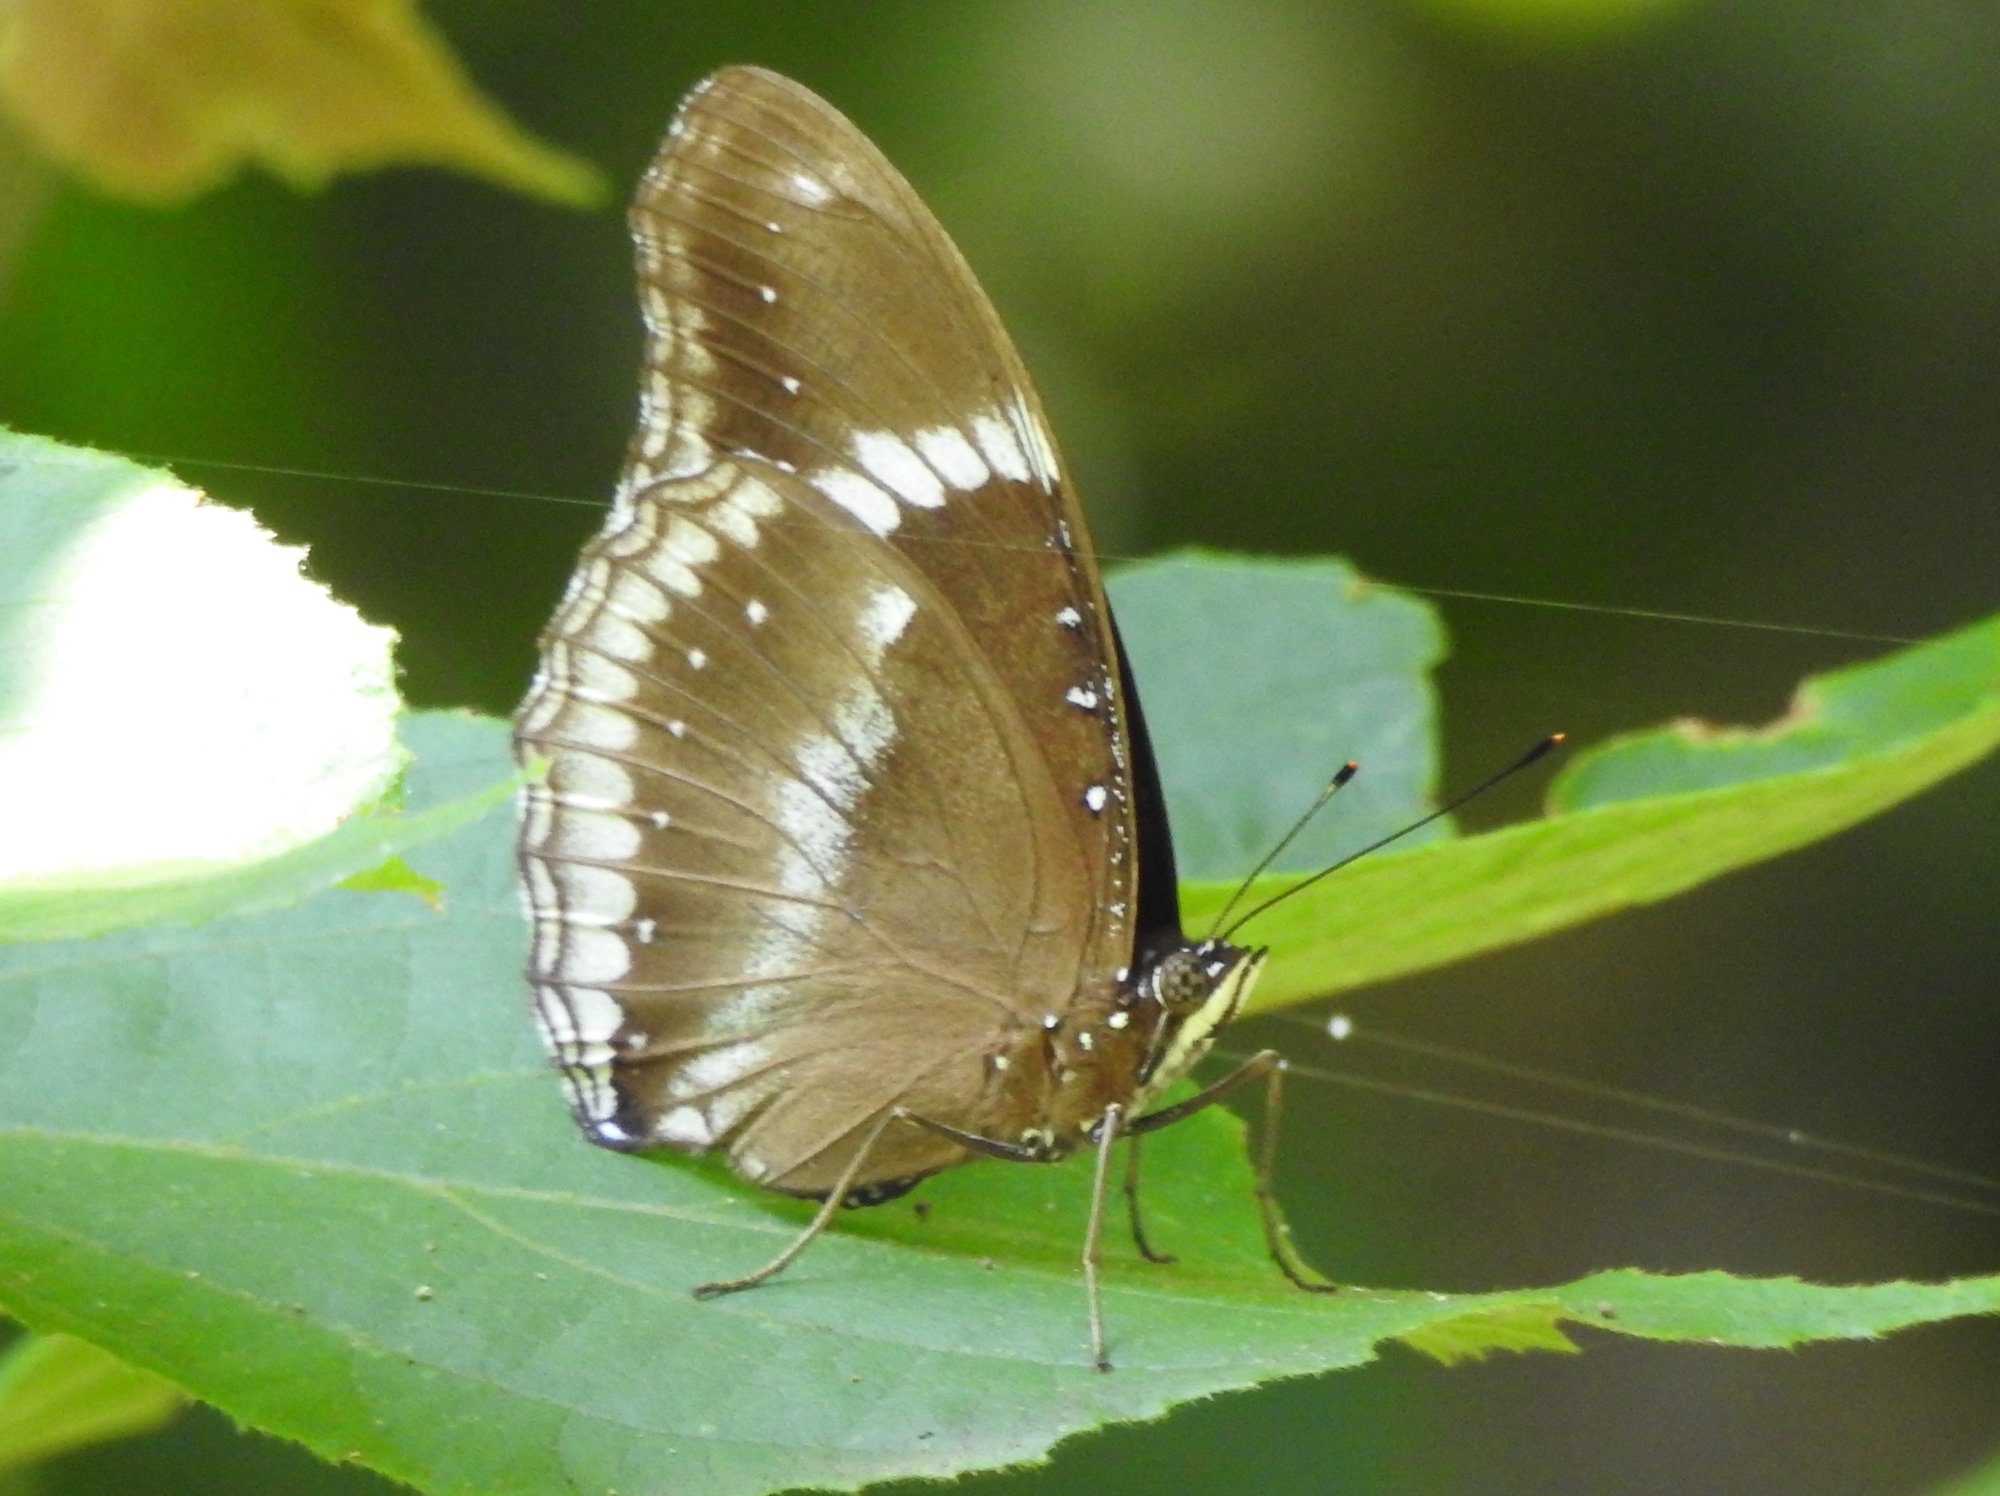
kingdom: Animalia
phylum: Arthropoda
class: Insecta
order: Lepidoptera
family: Nymphalidae
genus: Hypolimnas
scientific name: Hypolimnas bolina
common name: Great eggfly
